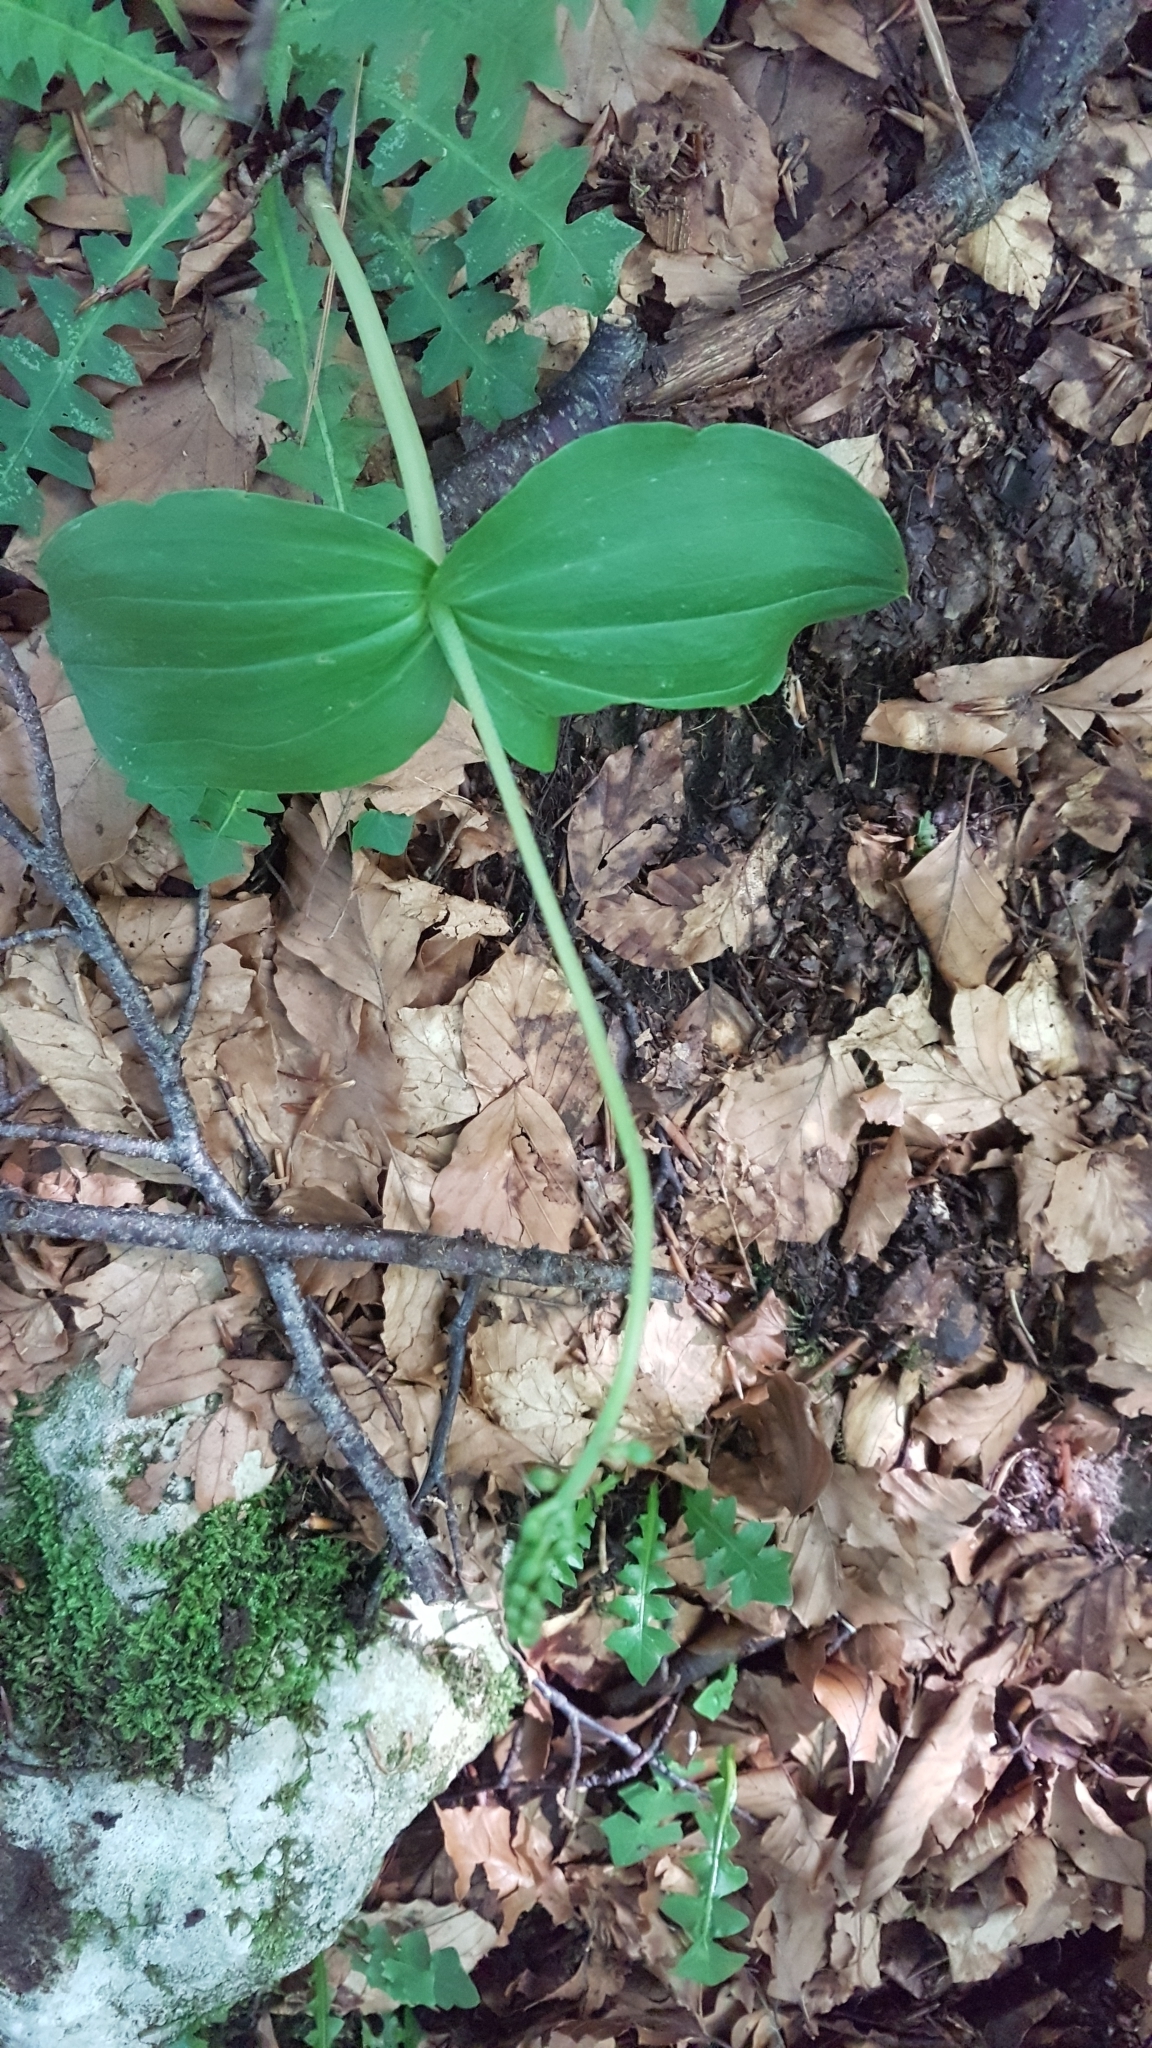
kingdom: Plantae
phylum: Tracheophyta
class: Liliopsida
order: Asparagales
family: Orchidaceae
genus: Neottia
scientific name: Neottia ovata
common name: Common twayblade
